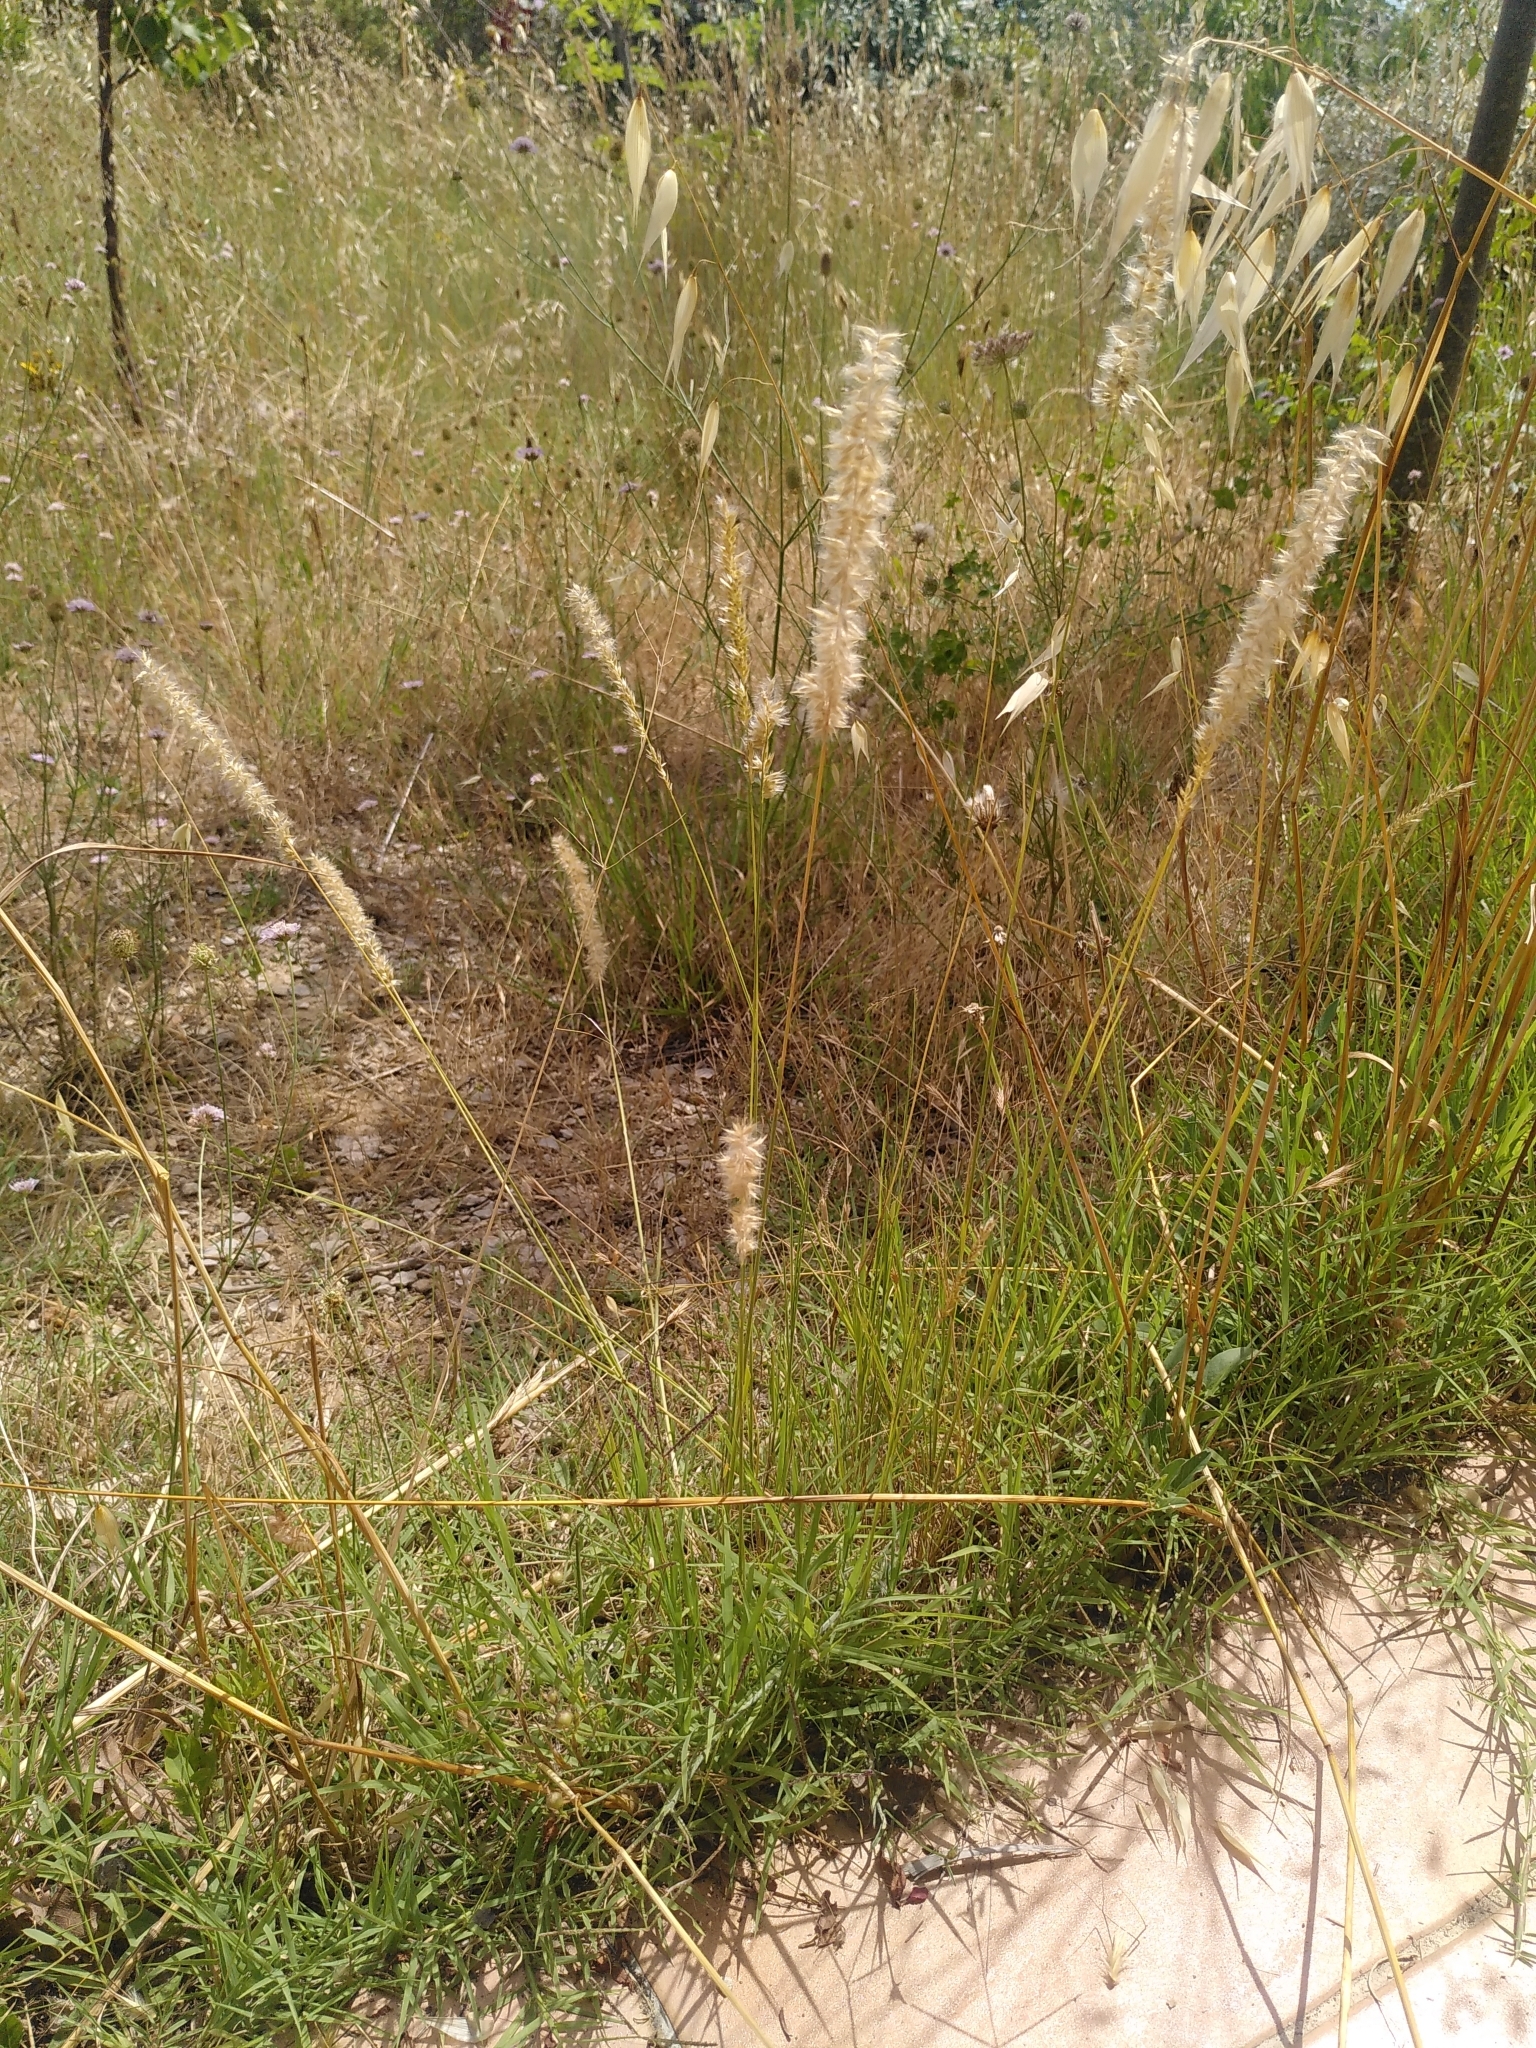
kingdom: Plantae
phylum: Tracheophyta
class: Liliopsida
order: Poales
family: Poaceae
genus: Melica
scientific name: Melica ciliata
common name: Hairy melicgrass
